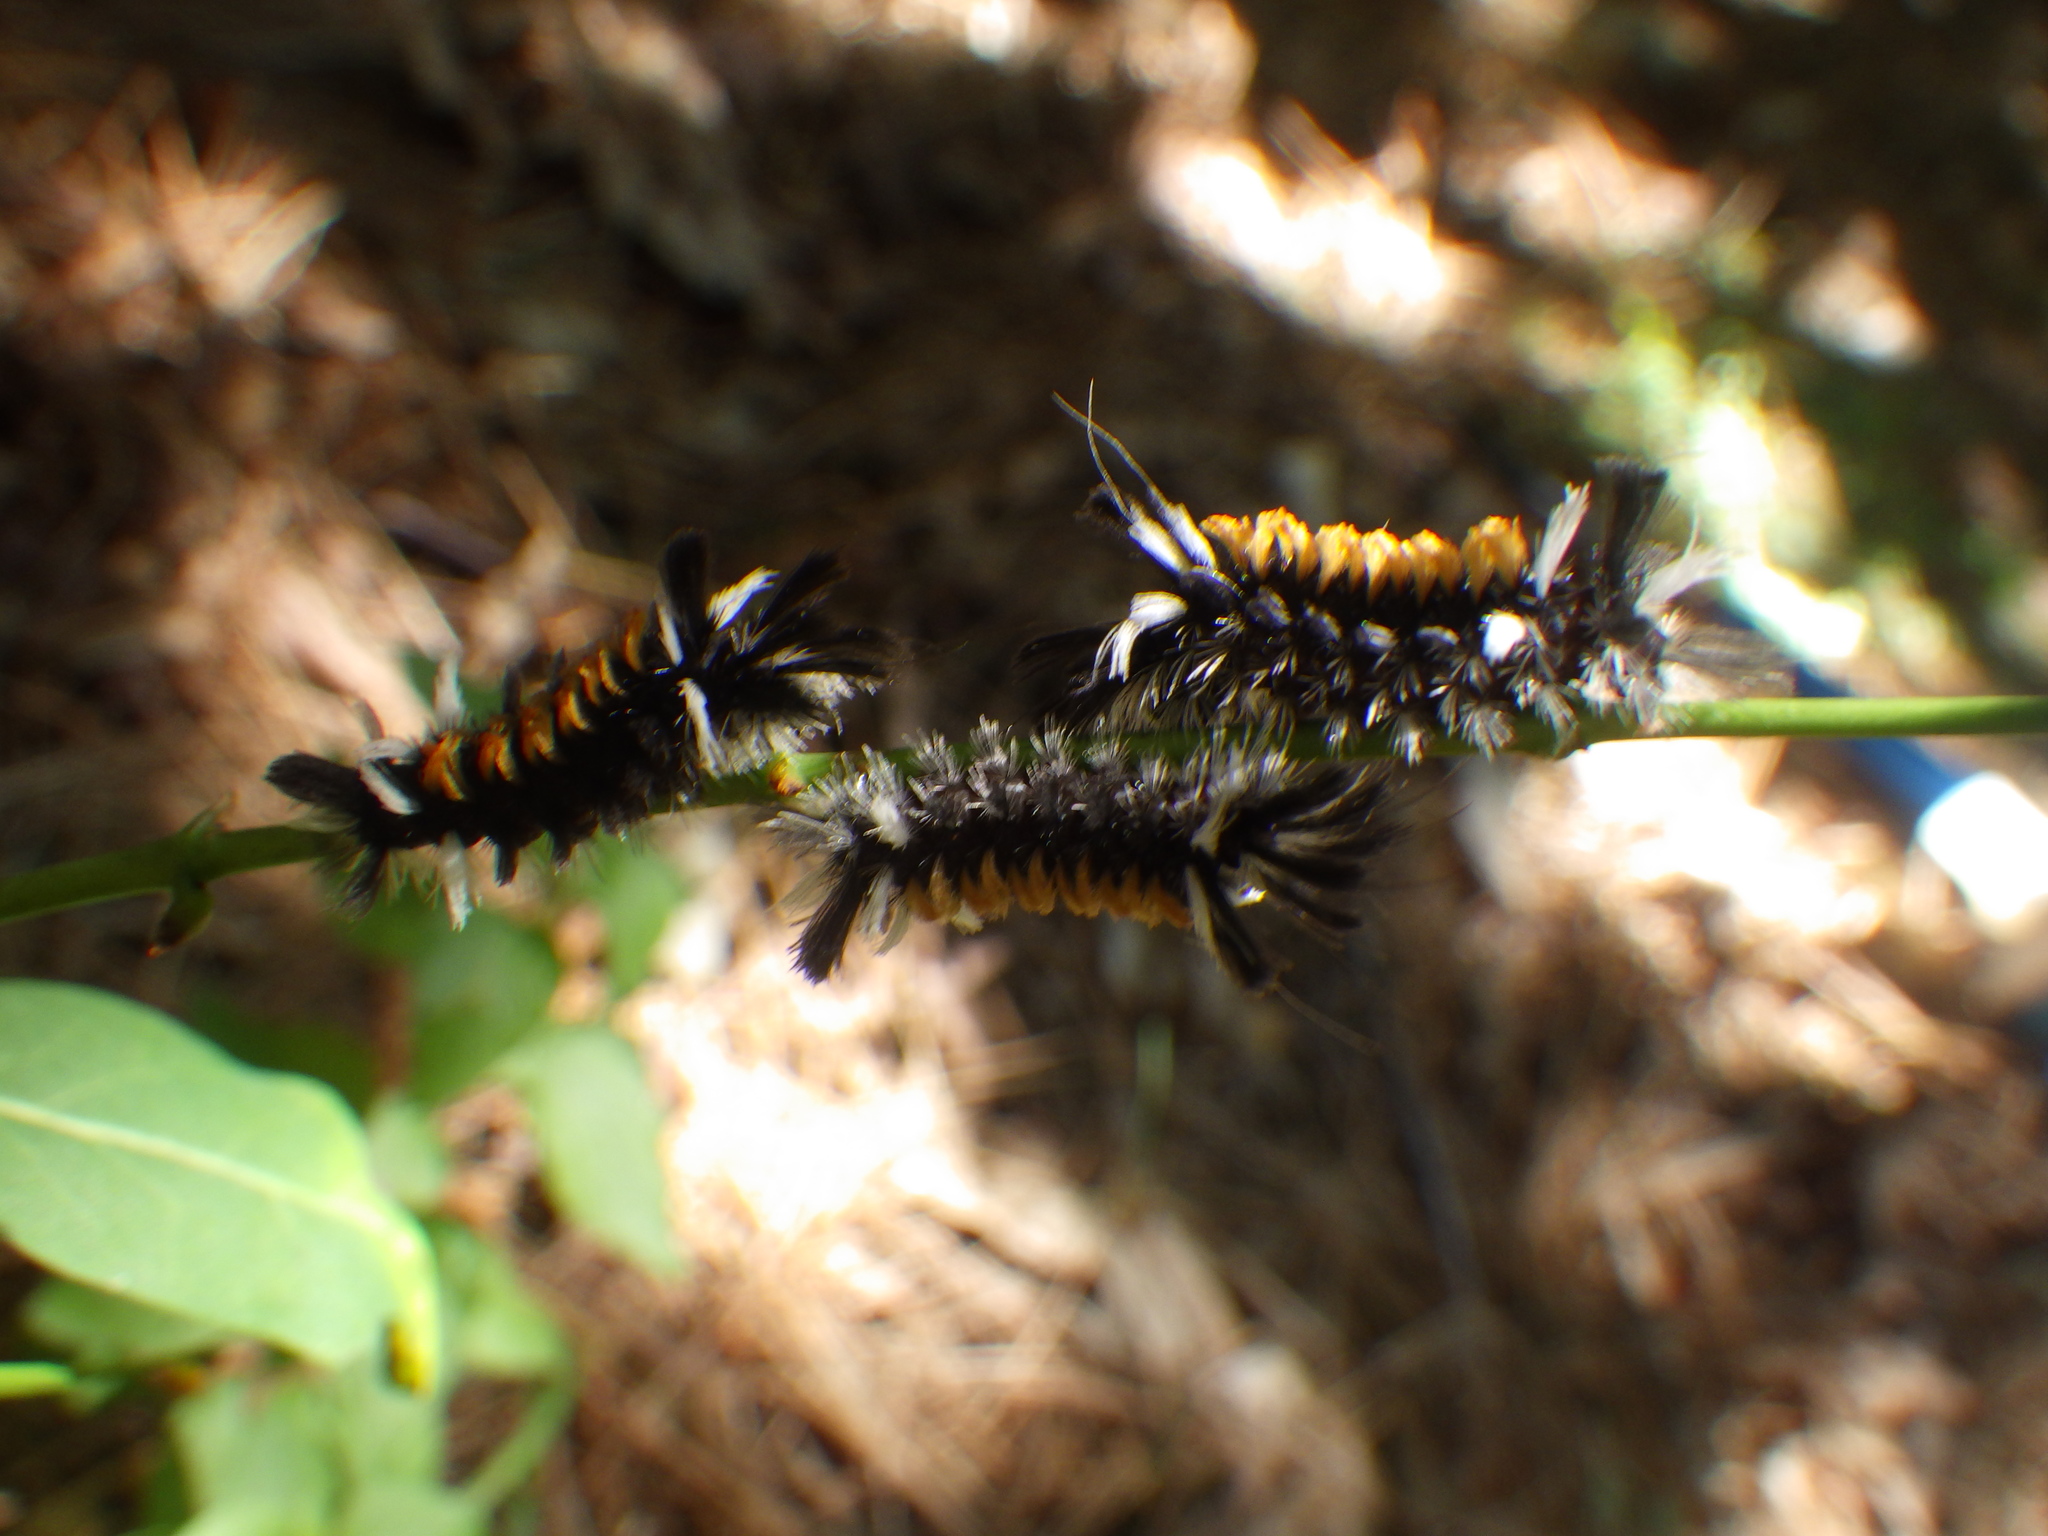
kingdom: Animalia
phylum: Arthropoda
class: Insecta
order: Lepidoptera
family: Erebidae
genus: Euchaetes
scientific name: Euchaetes egle
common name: Milkweed tussock moth
